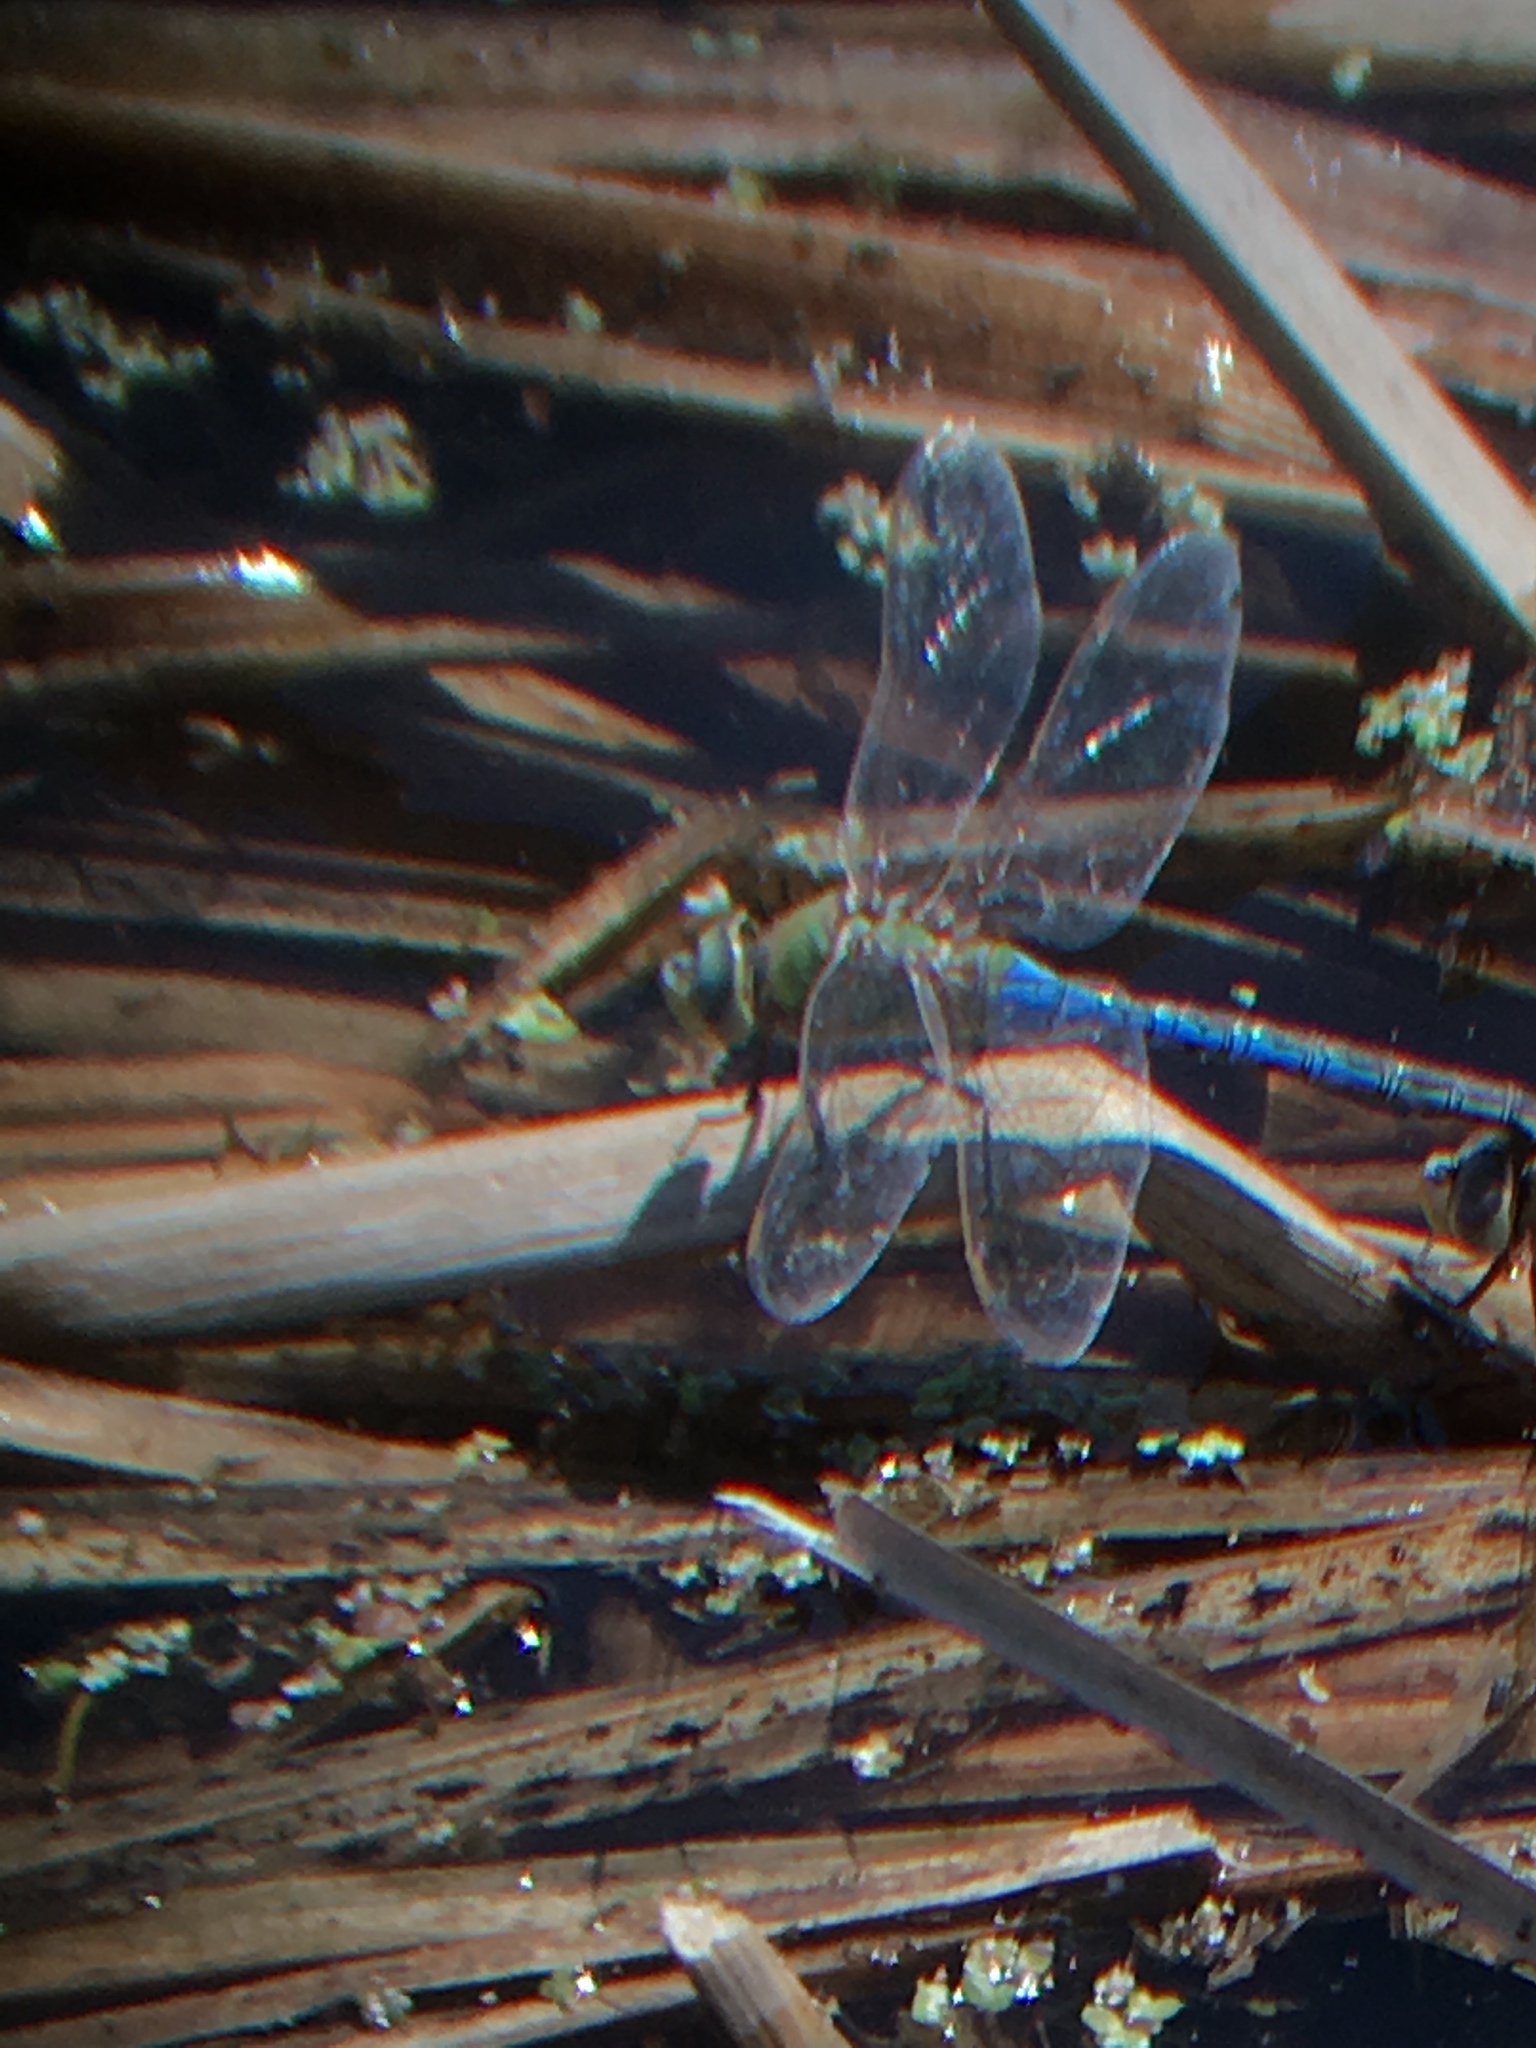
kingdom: Animalia
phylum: Arthropoda
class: Insecta
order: Odonata
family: Aeshnidae
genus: Anax
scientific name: Anax junius
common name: Common green darner
